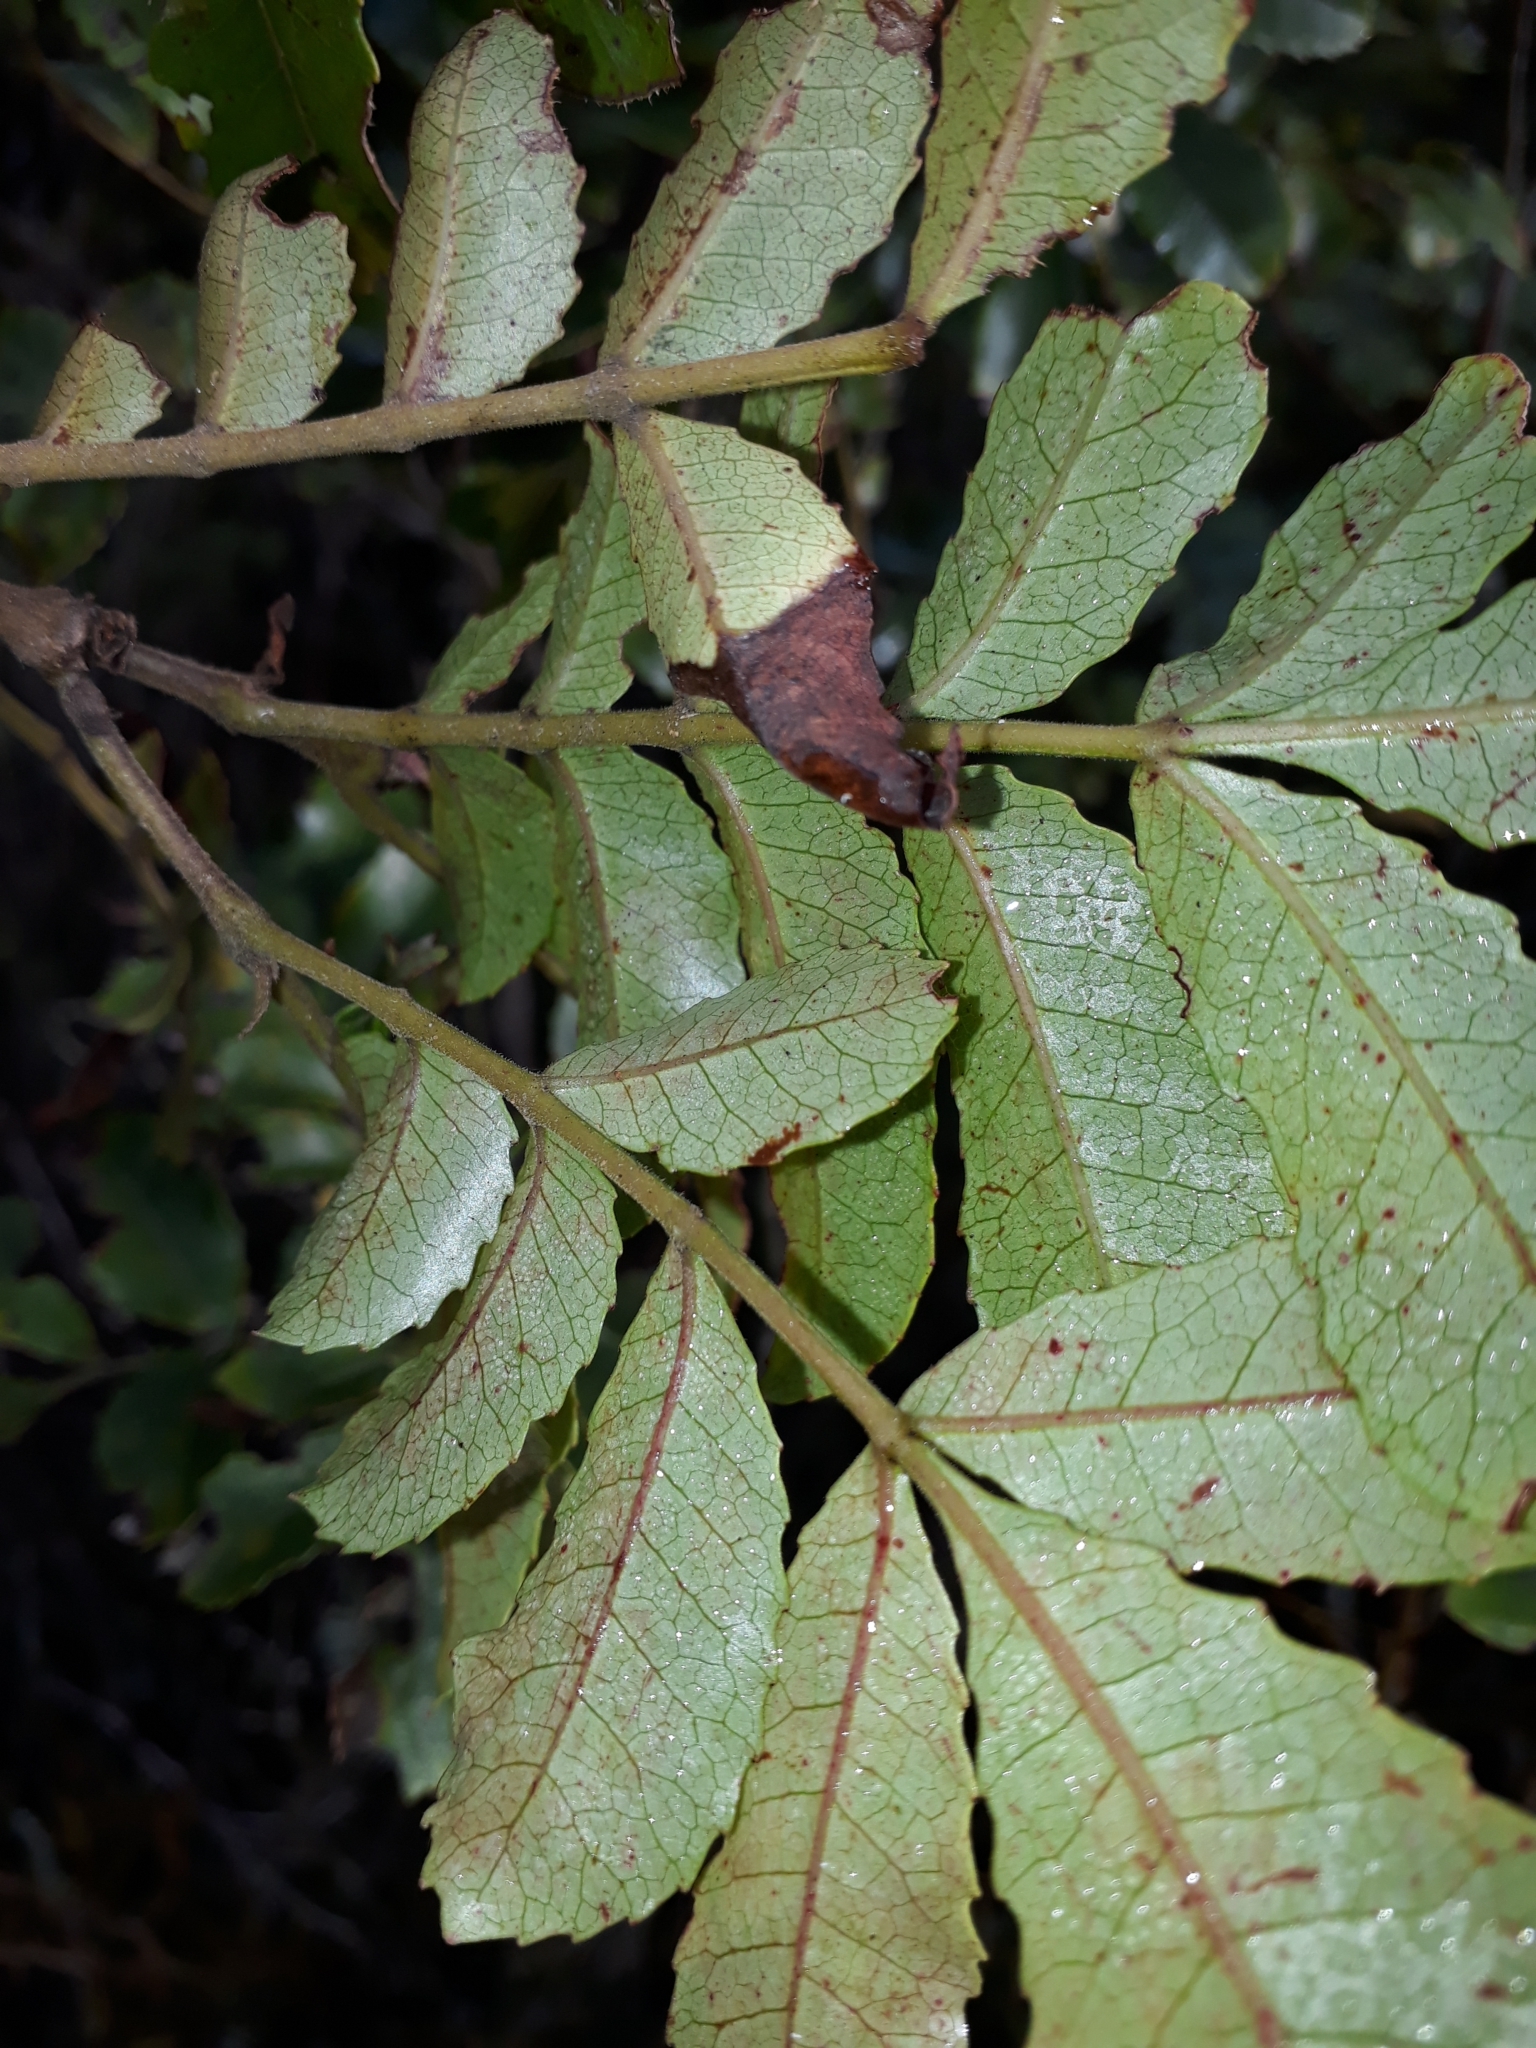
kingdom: Plantae
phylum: Tracheophyta
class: Magnoliopsida
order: Oxalidales
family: Cunoniaceae
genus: Pterophylla
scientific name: Pterophylla sylvicola
